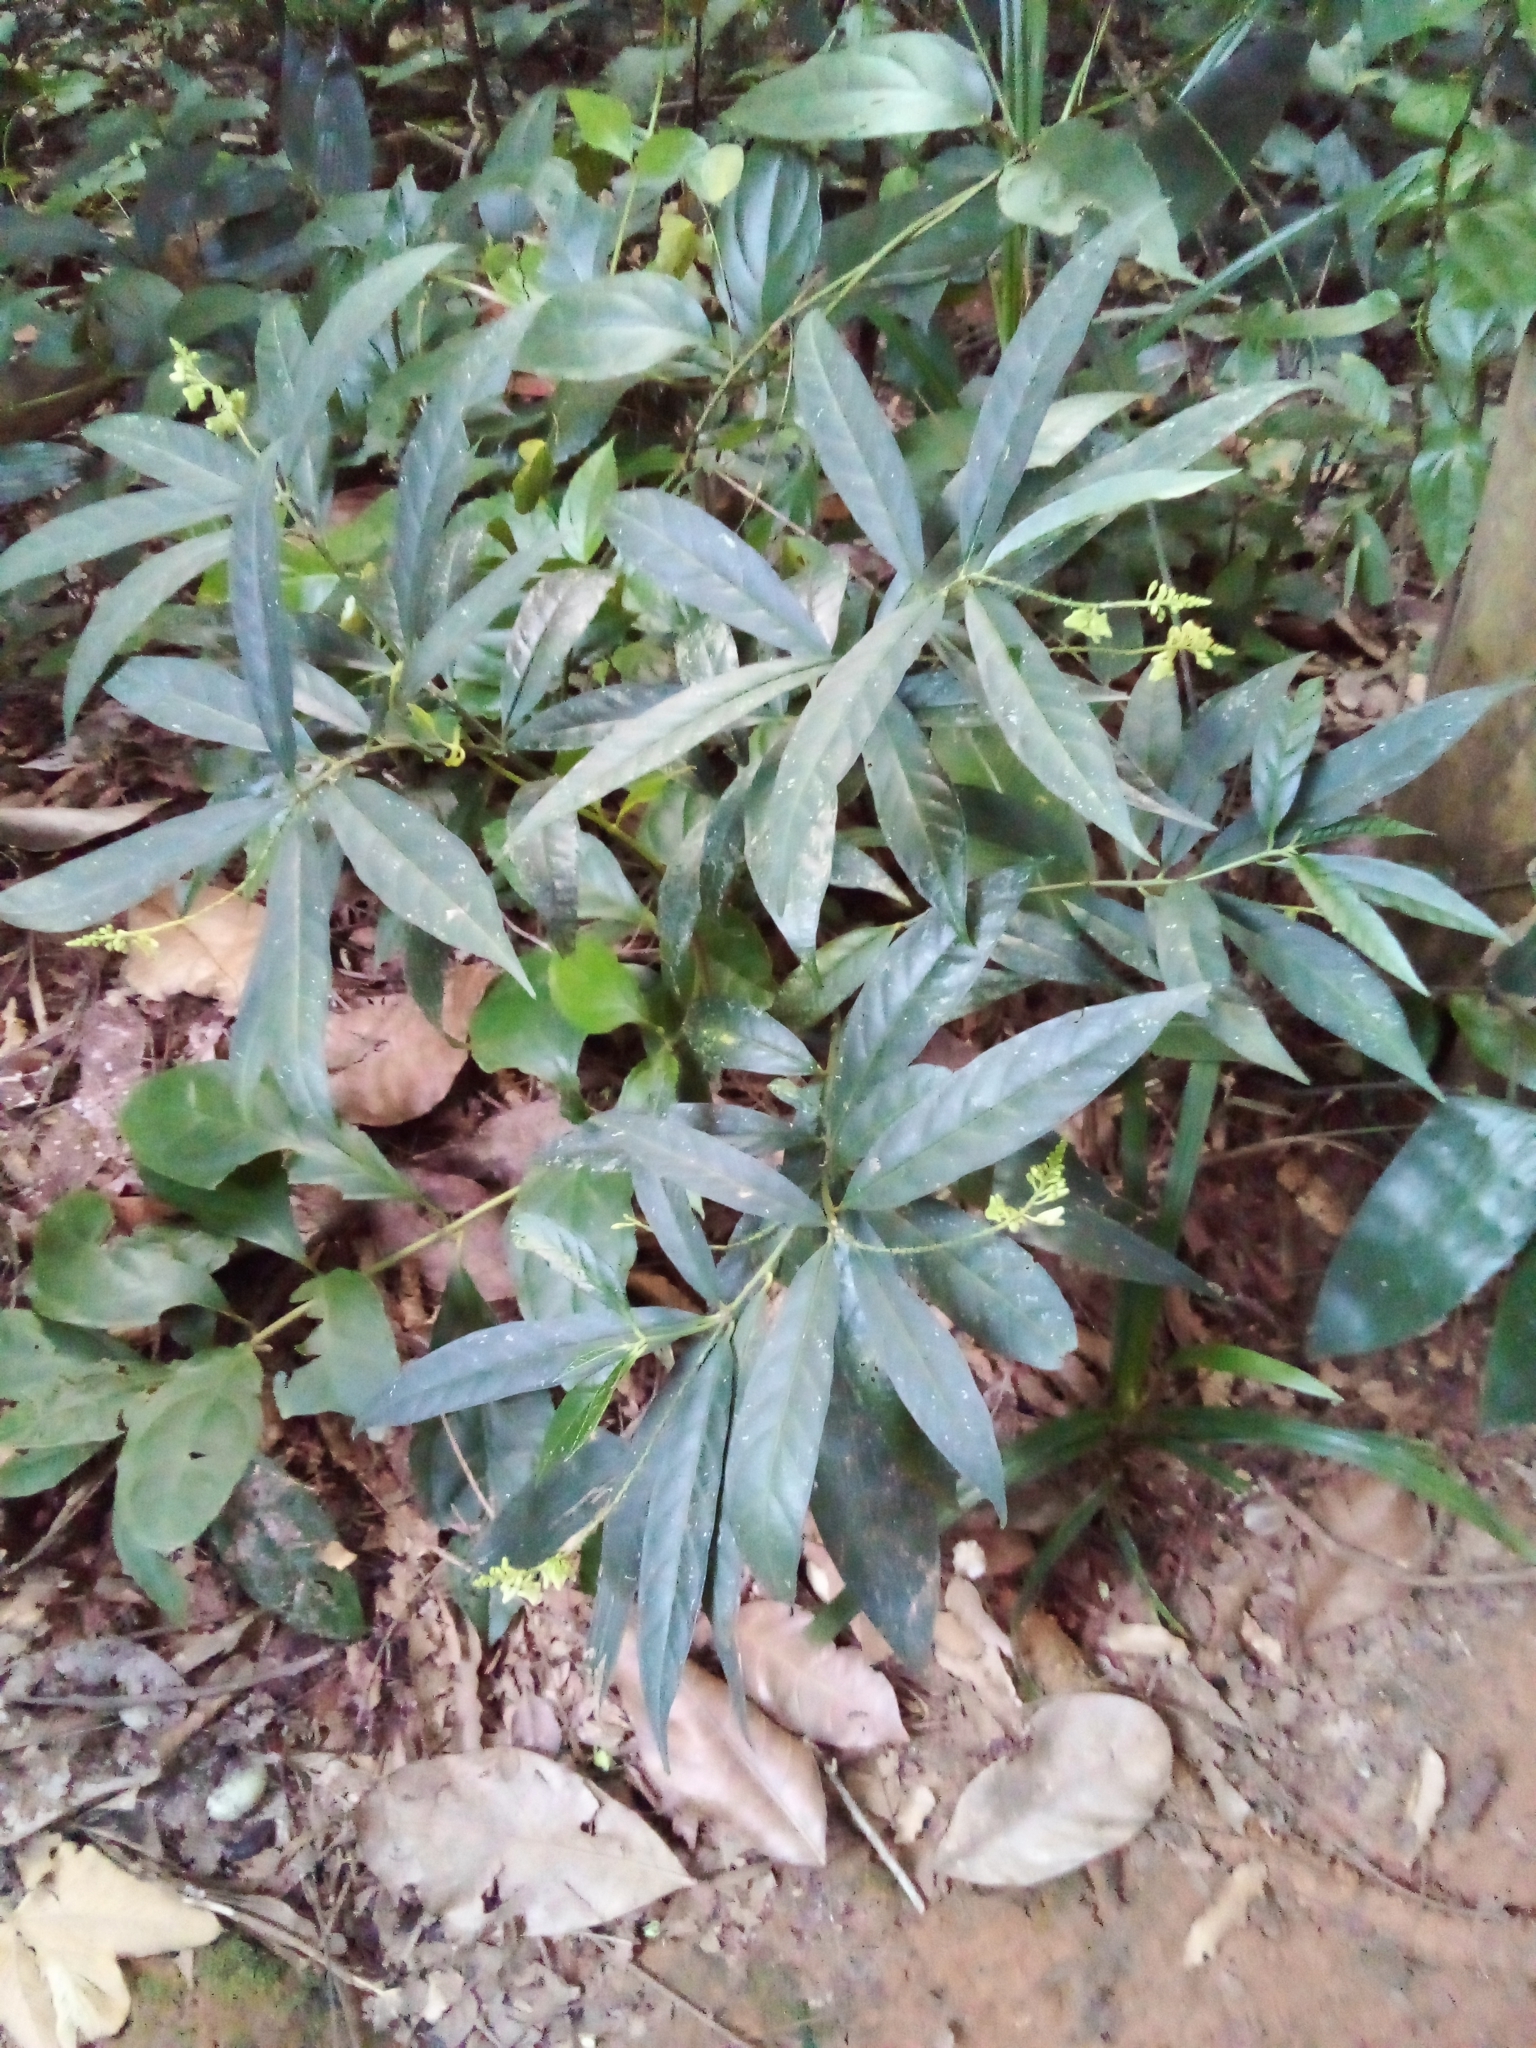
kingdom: Plantae
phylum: Tracheophyta
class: Magnoliopsida
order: Fabales
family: Polygalaceae
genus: Caamembeca
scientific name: Caamembeca salicifolia
